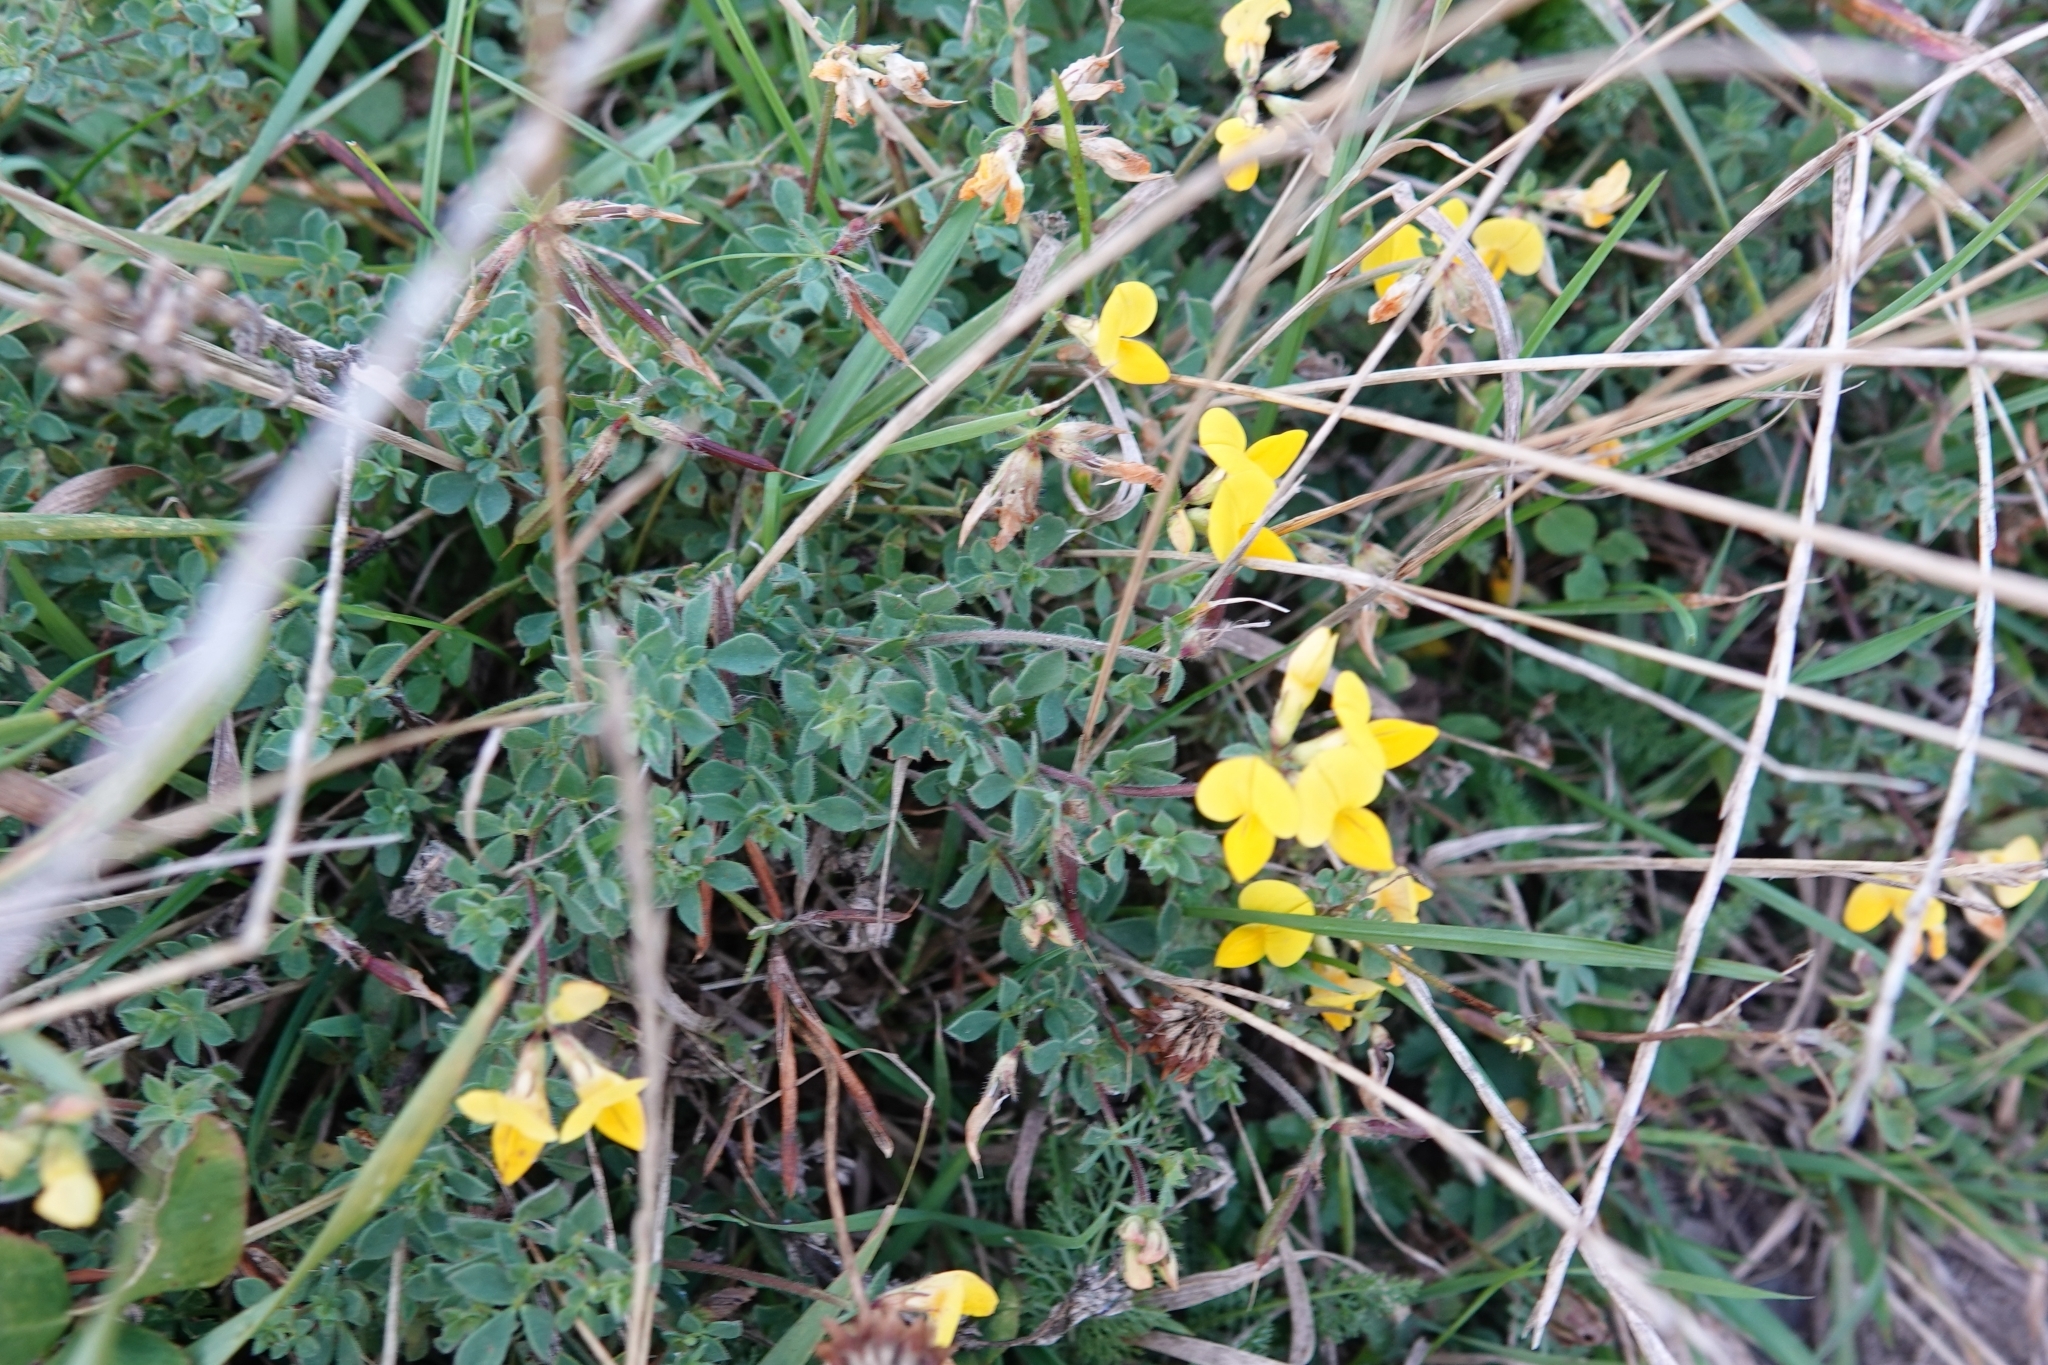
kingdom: Plantae
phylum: Tracheophyta
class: Magnoliopsida
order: Fabales
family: Fabaceae
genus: Lotus
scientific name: Lotus corniculatus
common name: Common bird's-foot-trefoil
